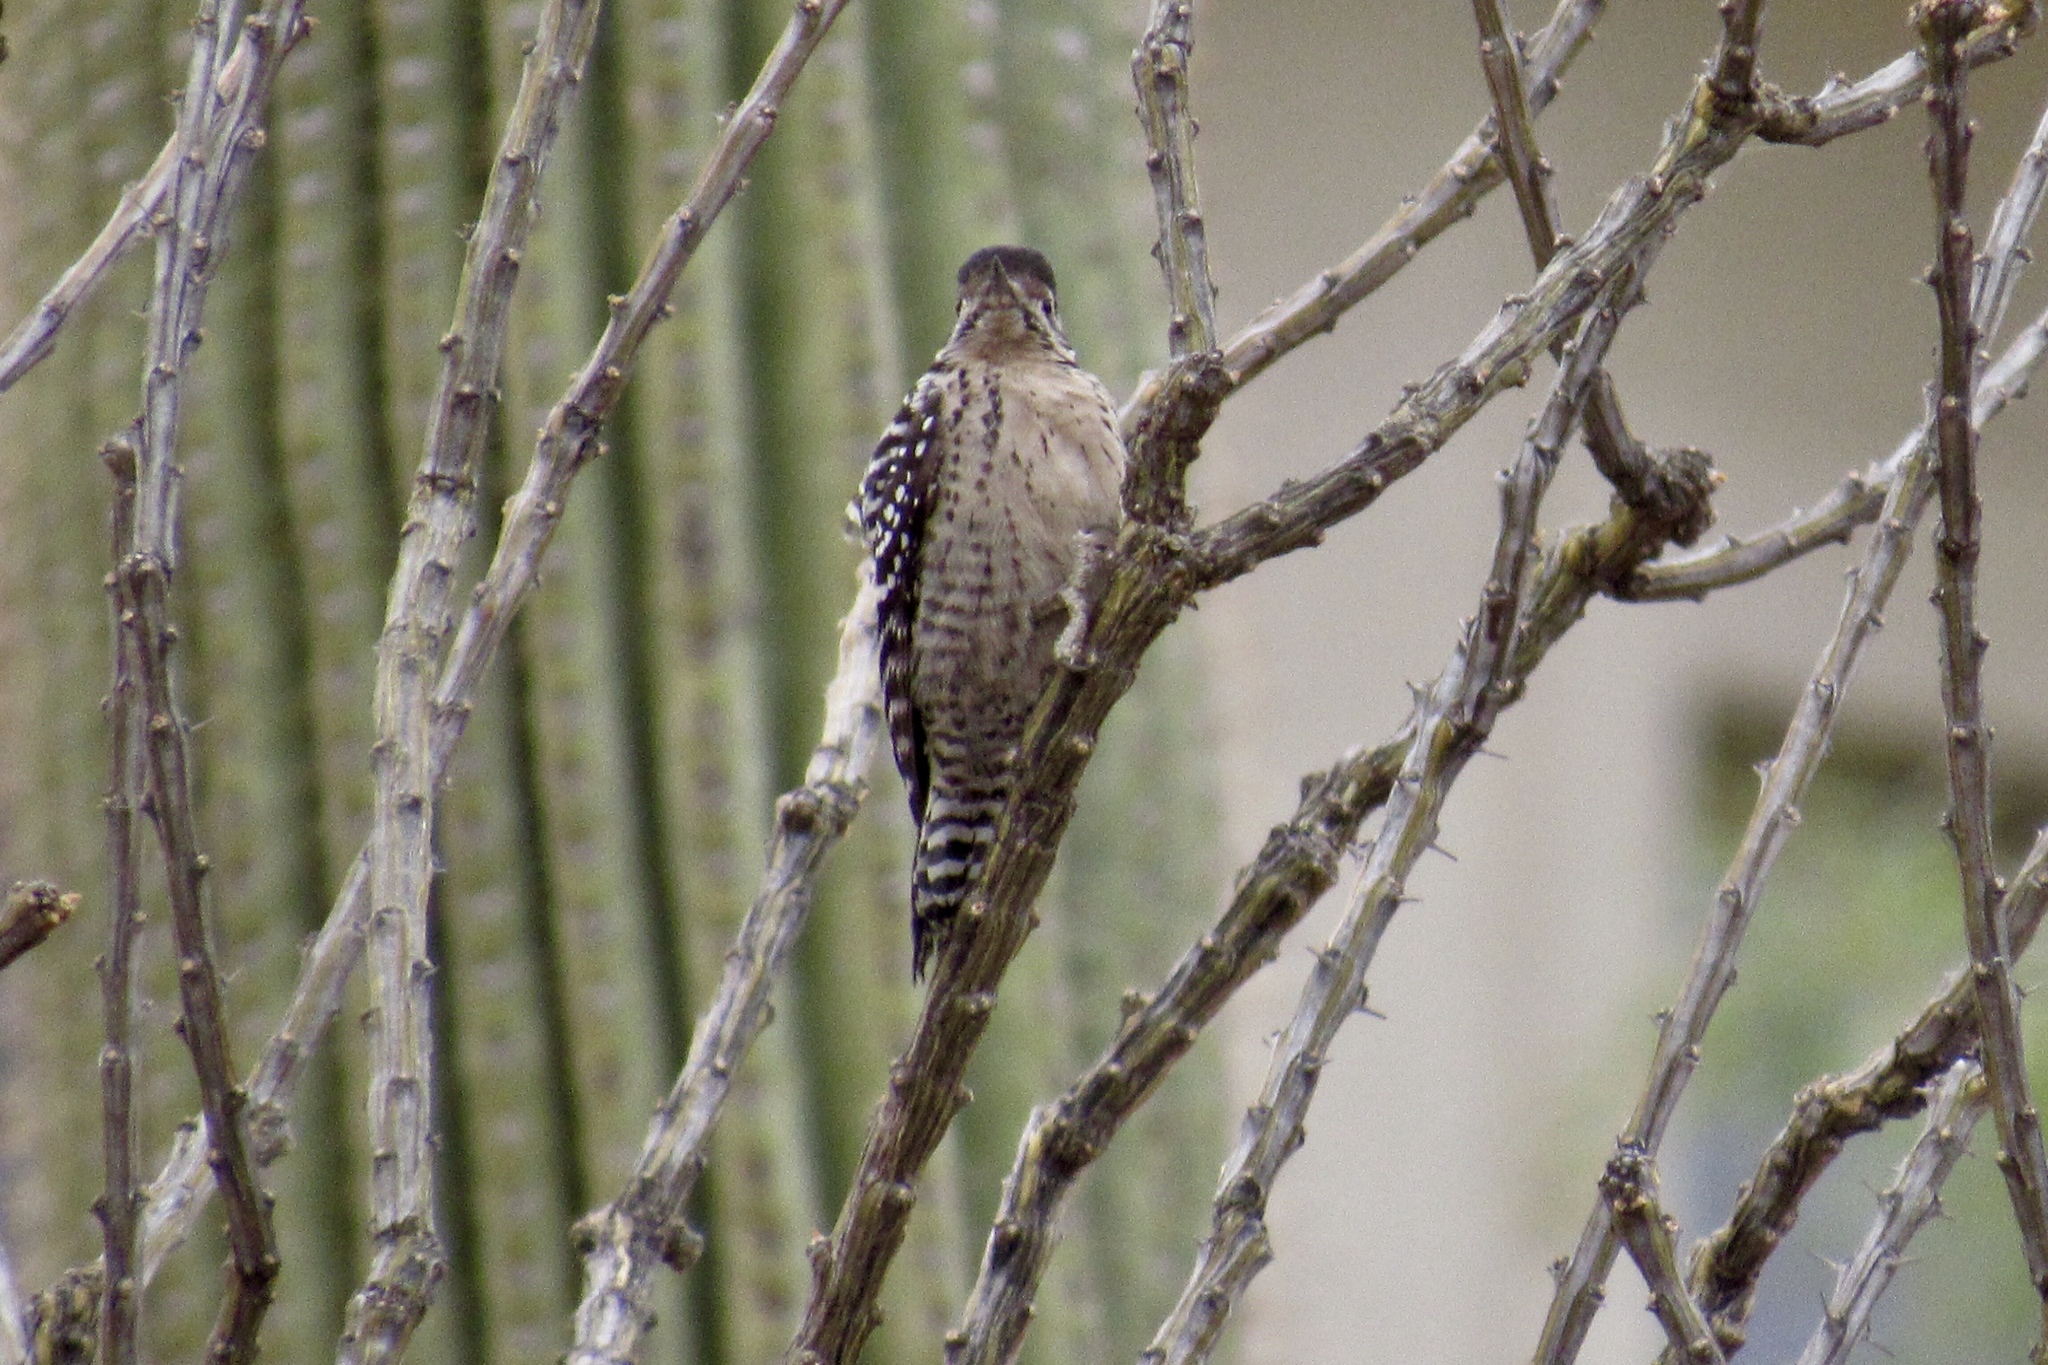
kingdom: Animalia
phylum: Chordata
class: Aves
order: Piciformes
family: Picidae
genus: Dryobates
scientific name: Dryobates scalaris
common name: Ladder-backed woodpecker
